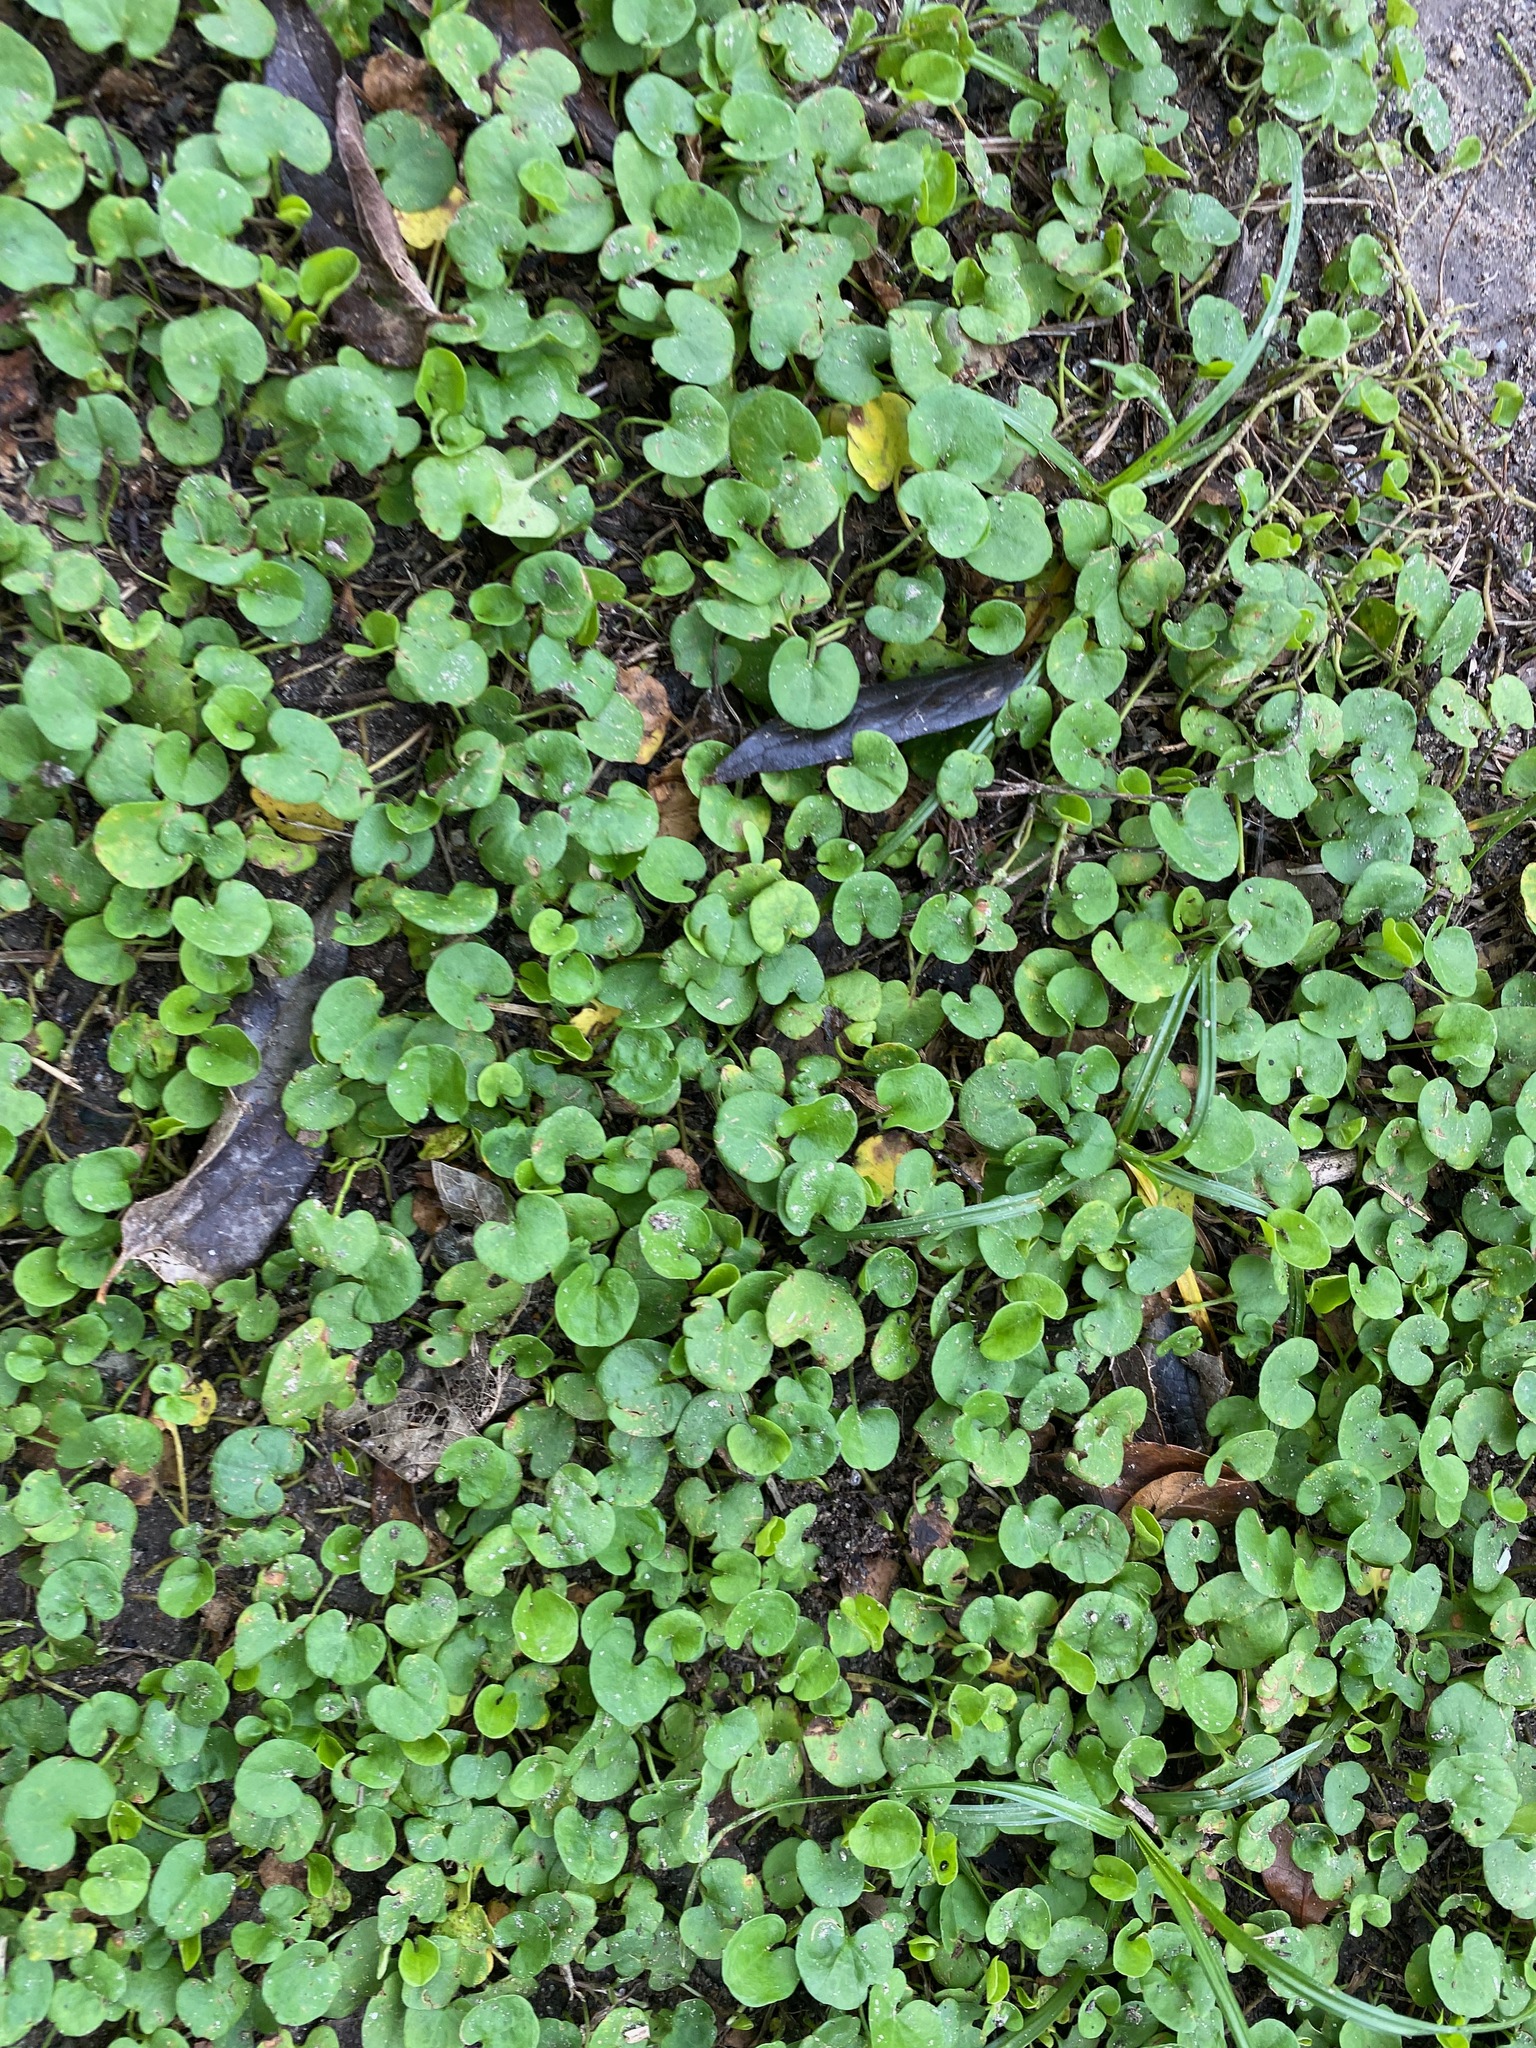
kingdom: Plantae
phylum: Tracheophyta
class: Magnoliopsida
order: Solanales
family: Convolvulaceae
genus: Dichondra
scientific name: Dichondra carolinensis
